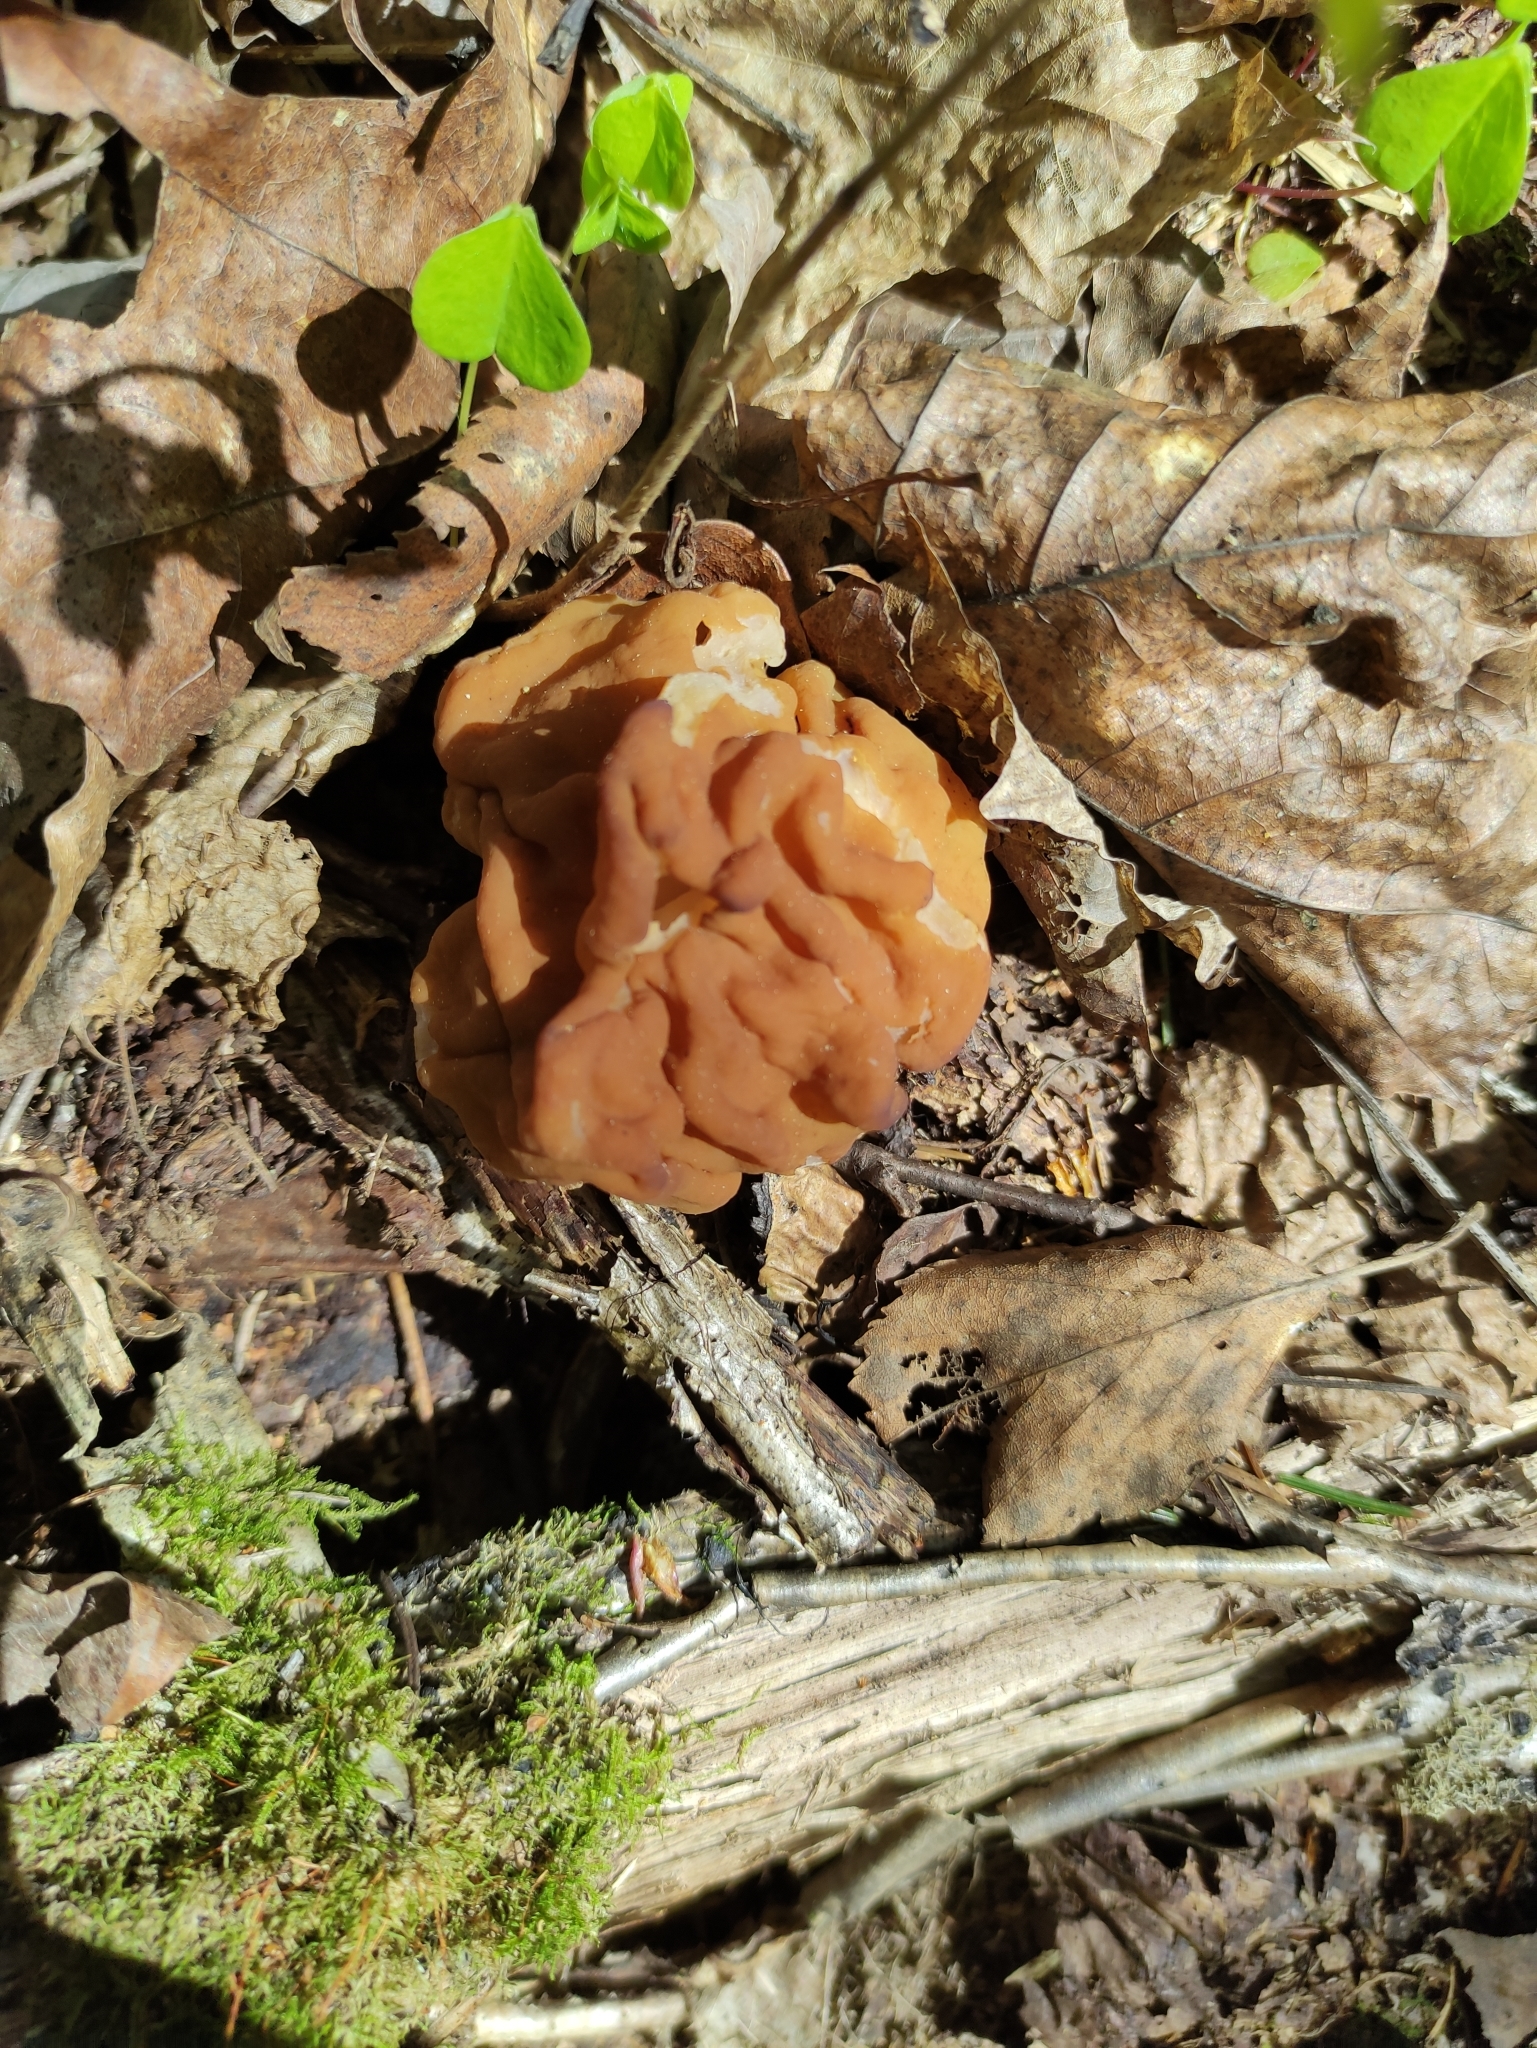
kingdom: Fungi
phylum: Ascomycota
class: Pezizomycetes
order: Pezizales
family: Discinaceae
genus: Gyromitra
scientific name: Gyromitra gigas
